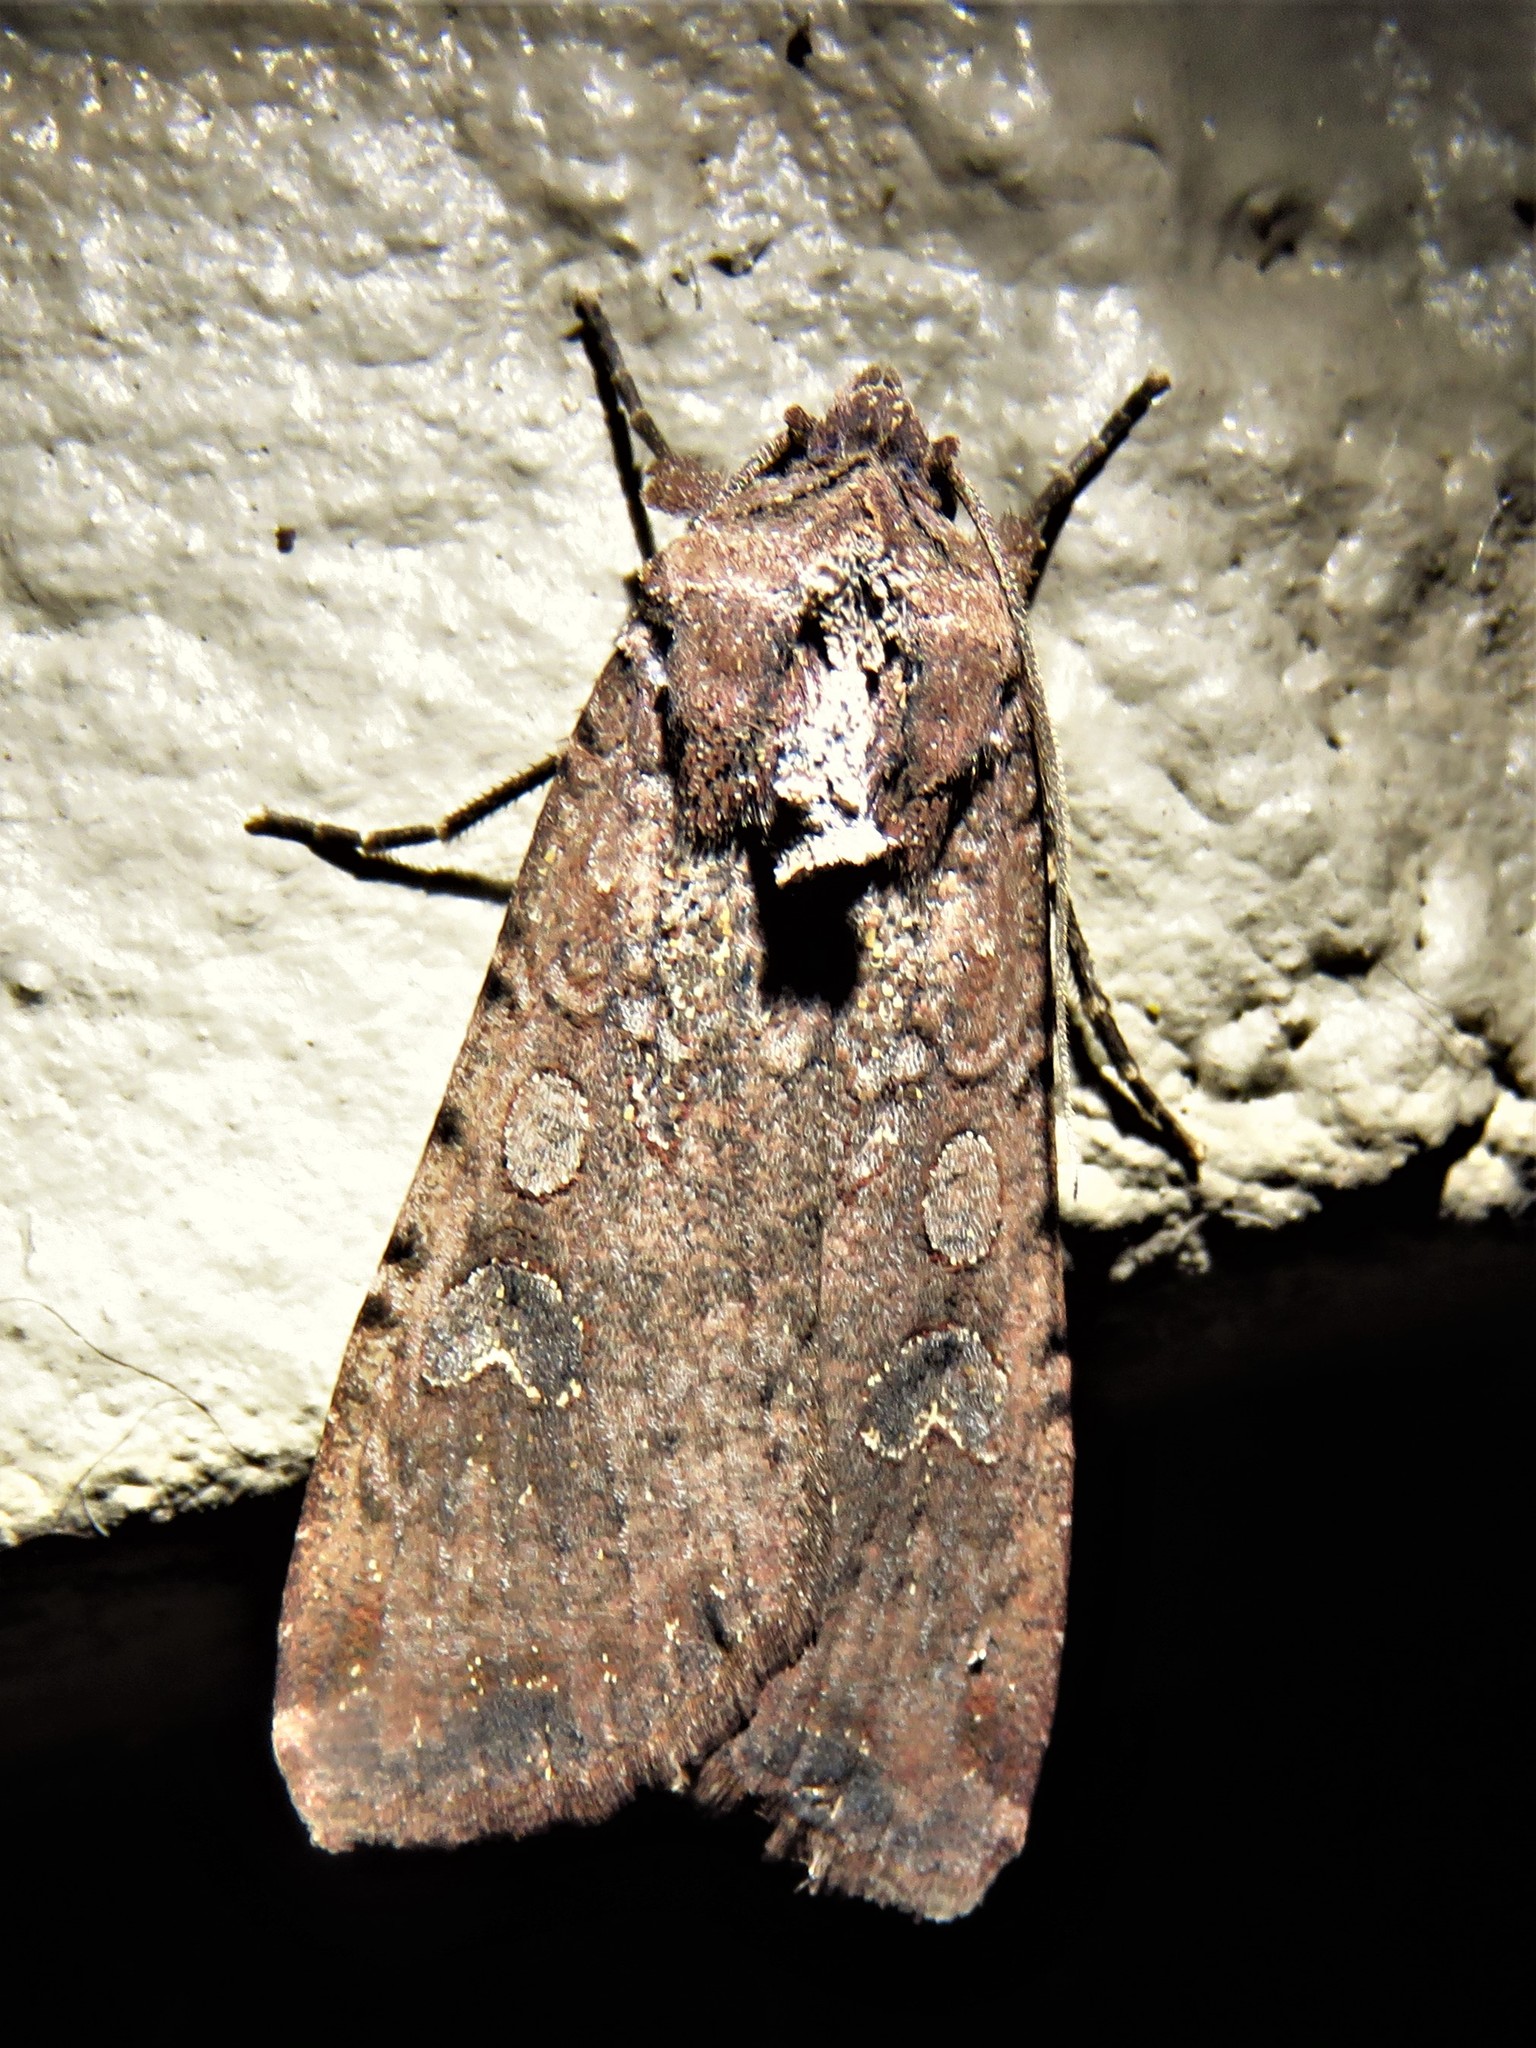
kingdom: Animalia
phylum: Arthropoda
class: Insecta
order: Lepidoptera
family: Noctuidae
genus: Peridroma
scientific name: Peridroma saucia
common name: Pearly underwing
